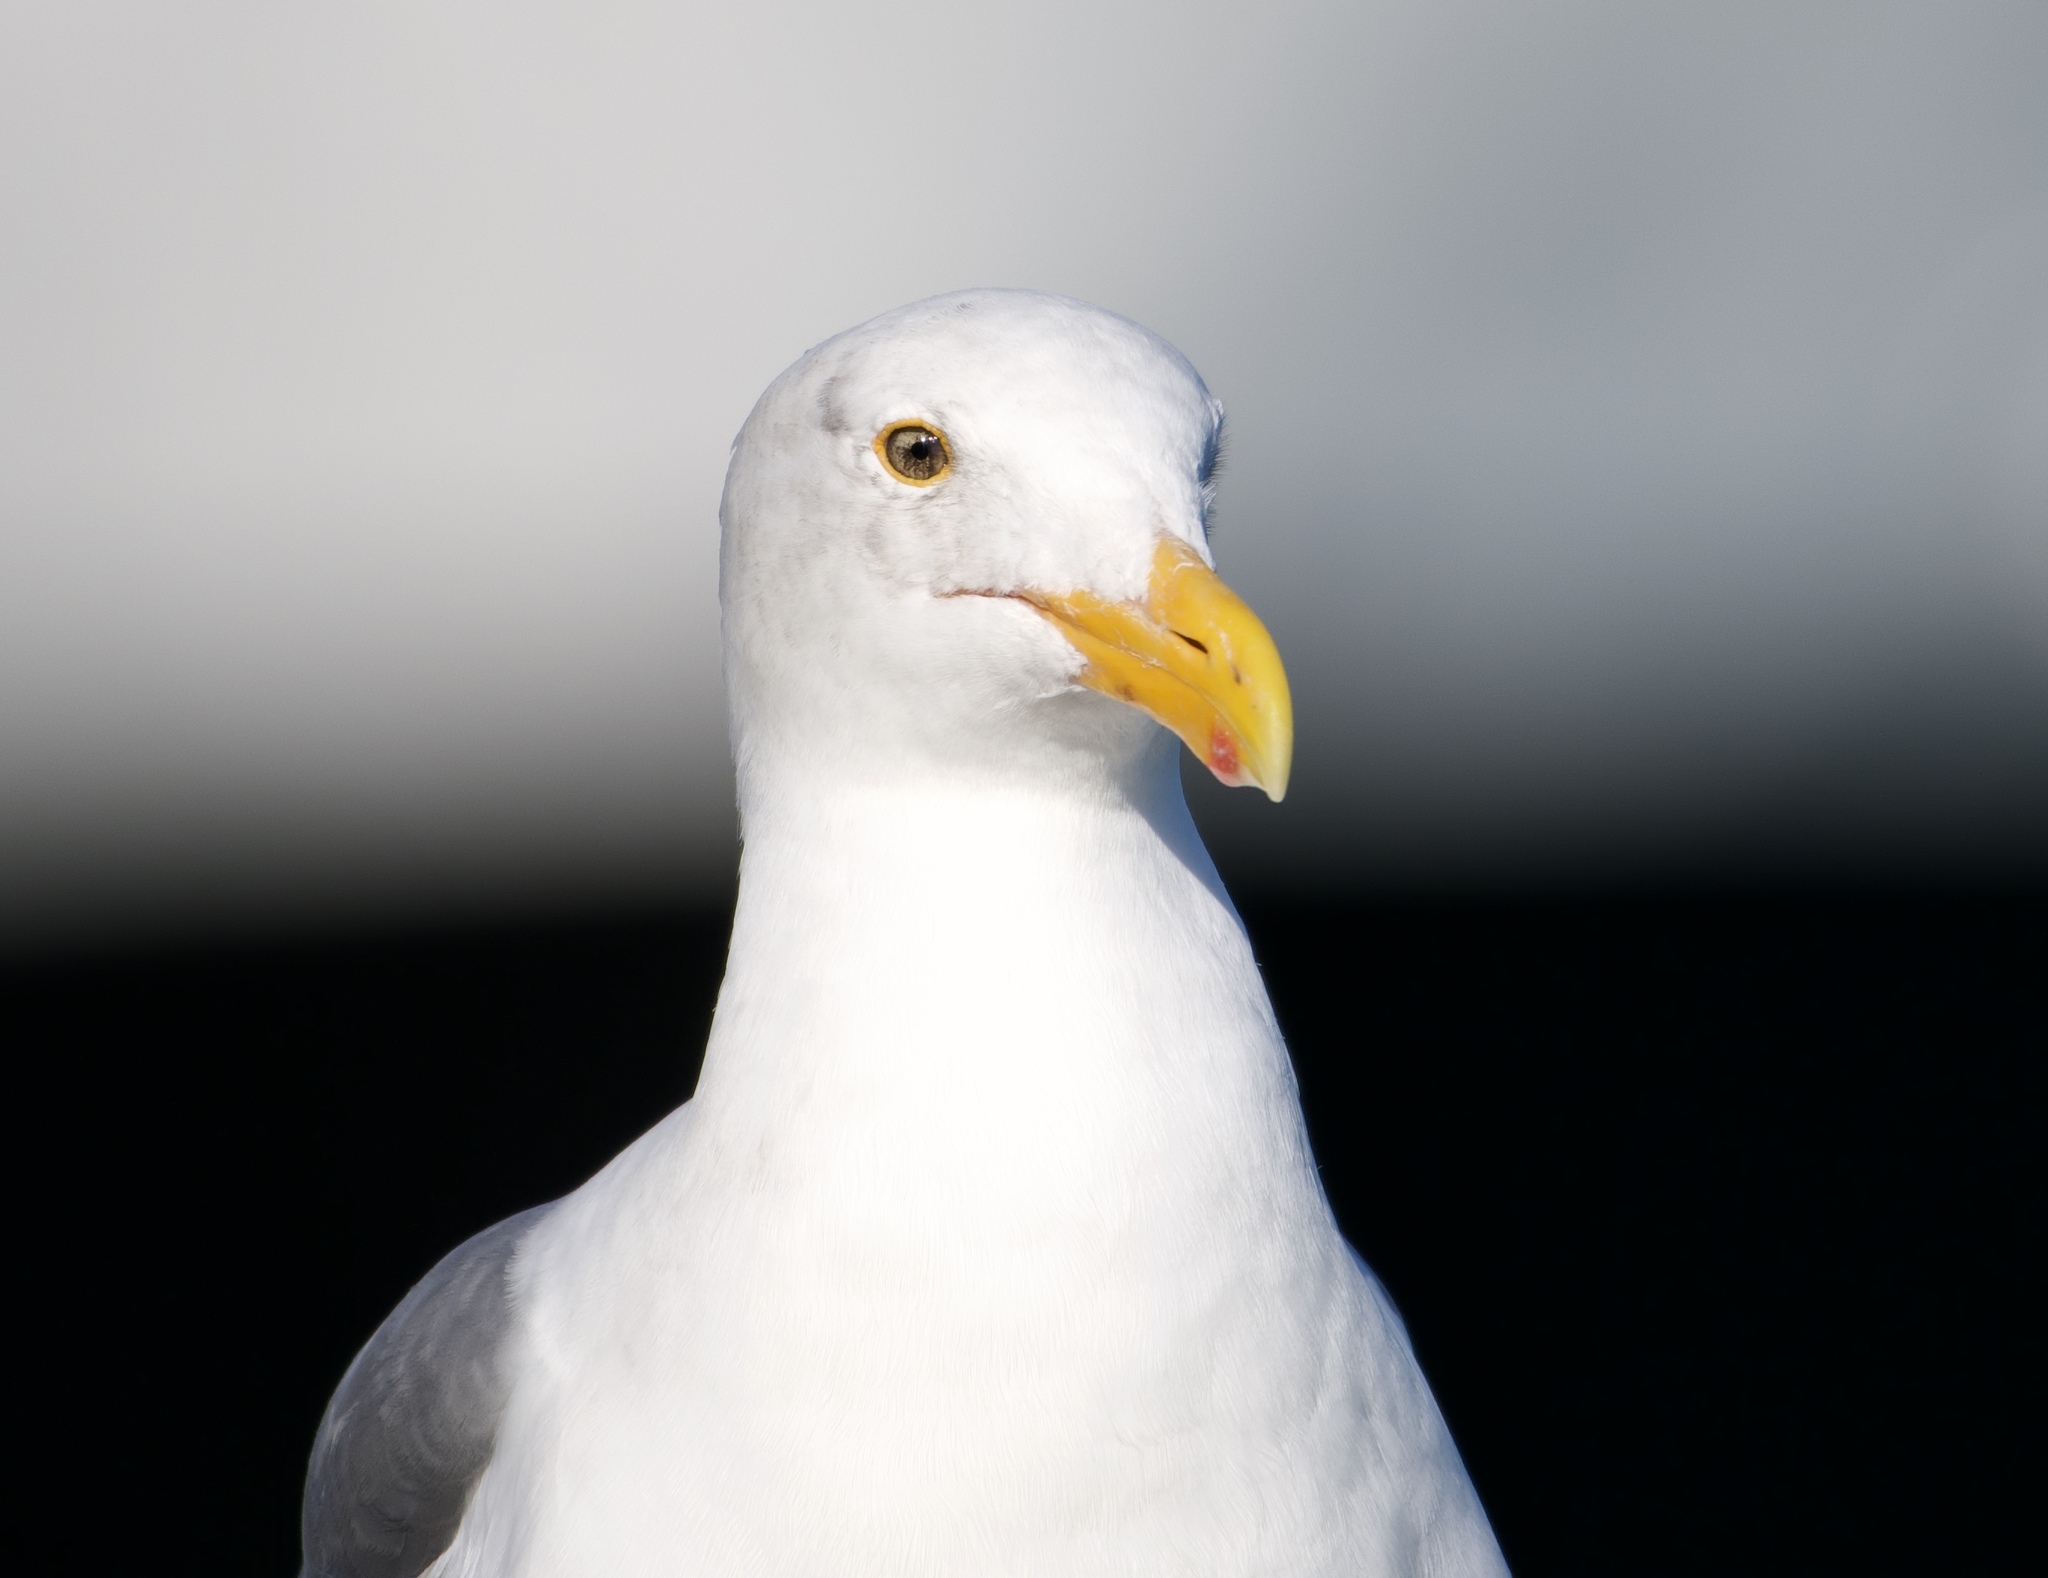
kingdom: Animalia
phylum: Chordata
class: Aves
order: Charadriiformes
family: Laridae
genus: Larus
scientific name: Larus occidentalis
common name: Western gull
